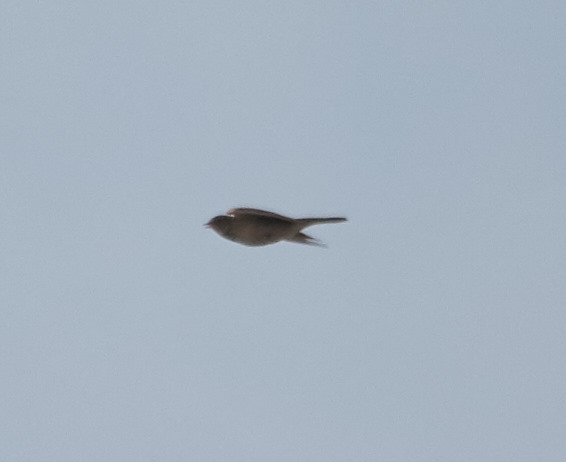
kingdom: Animalia
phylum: Chordata
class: Aves
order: Passeriformes
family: Alaudidae
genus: Alauda
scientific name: Alauda arvensis
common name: Eurasian skylark
